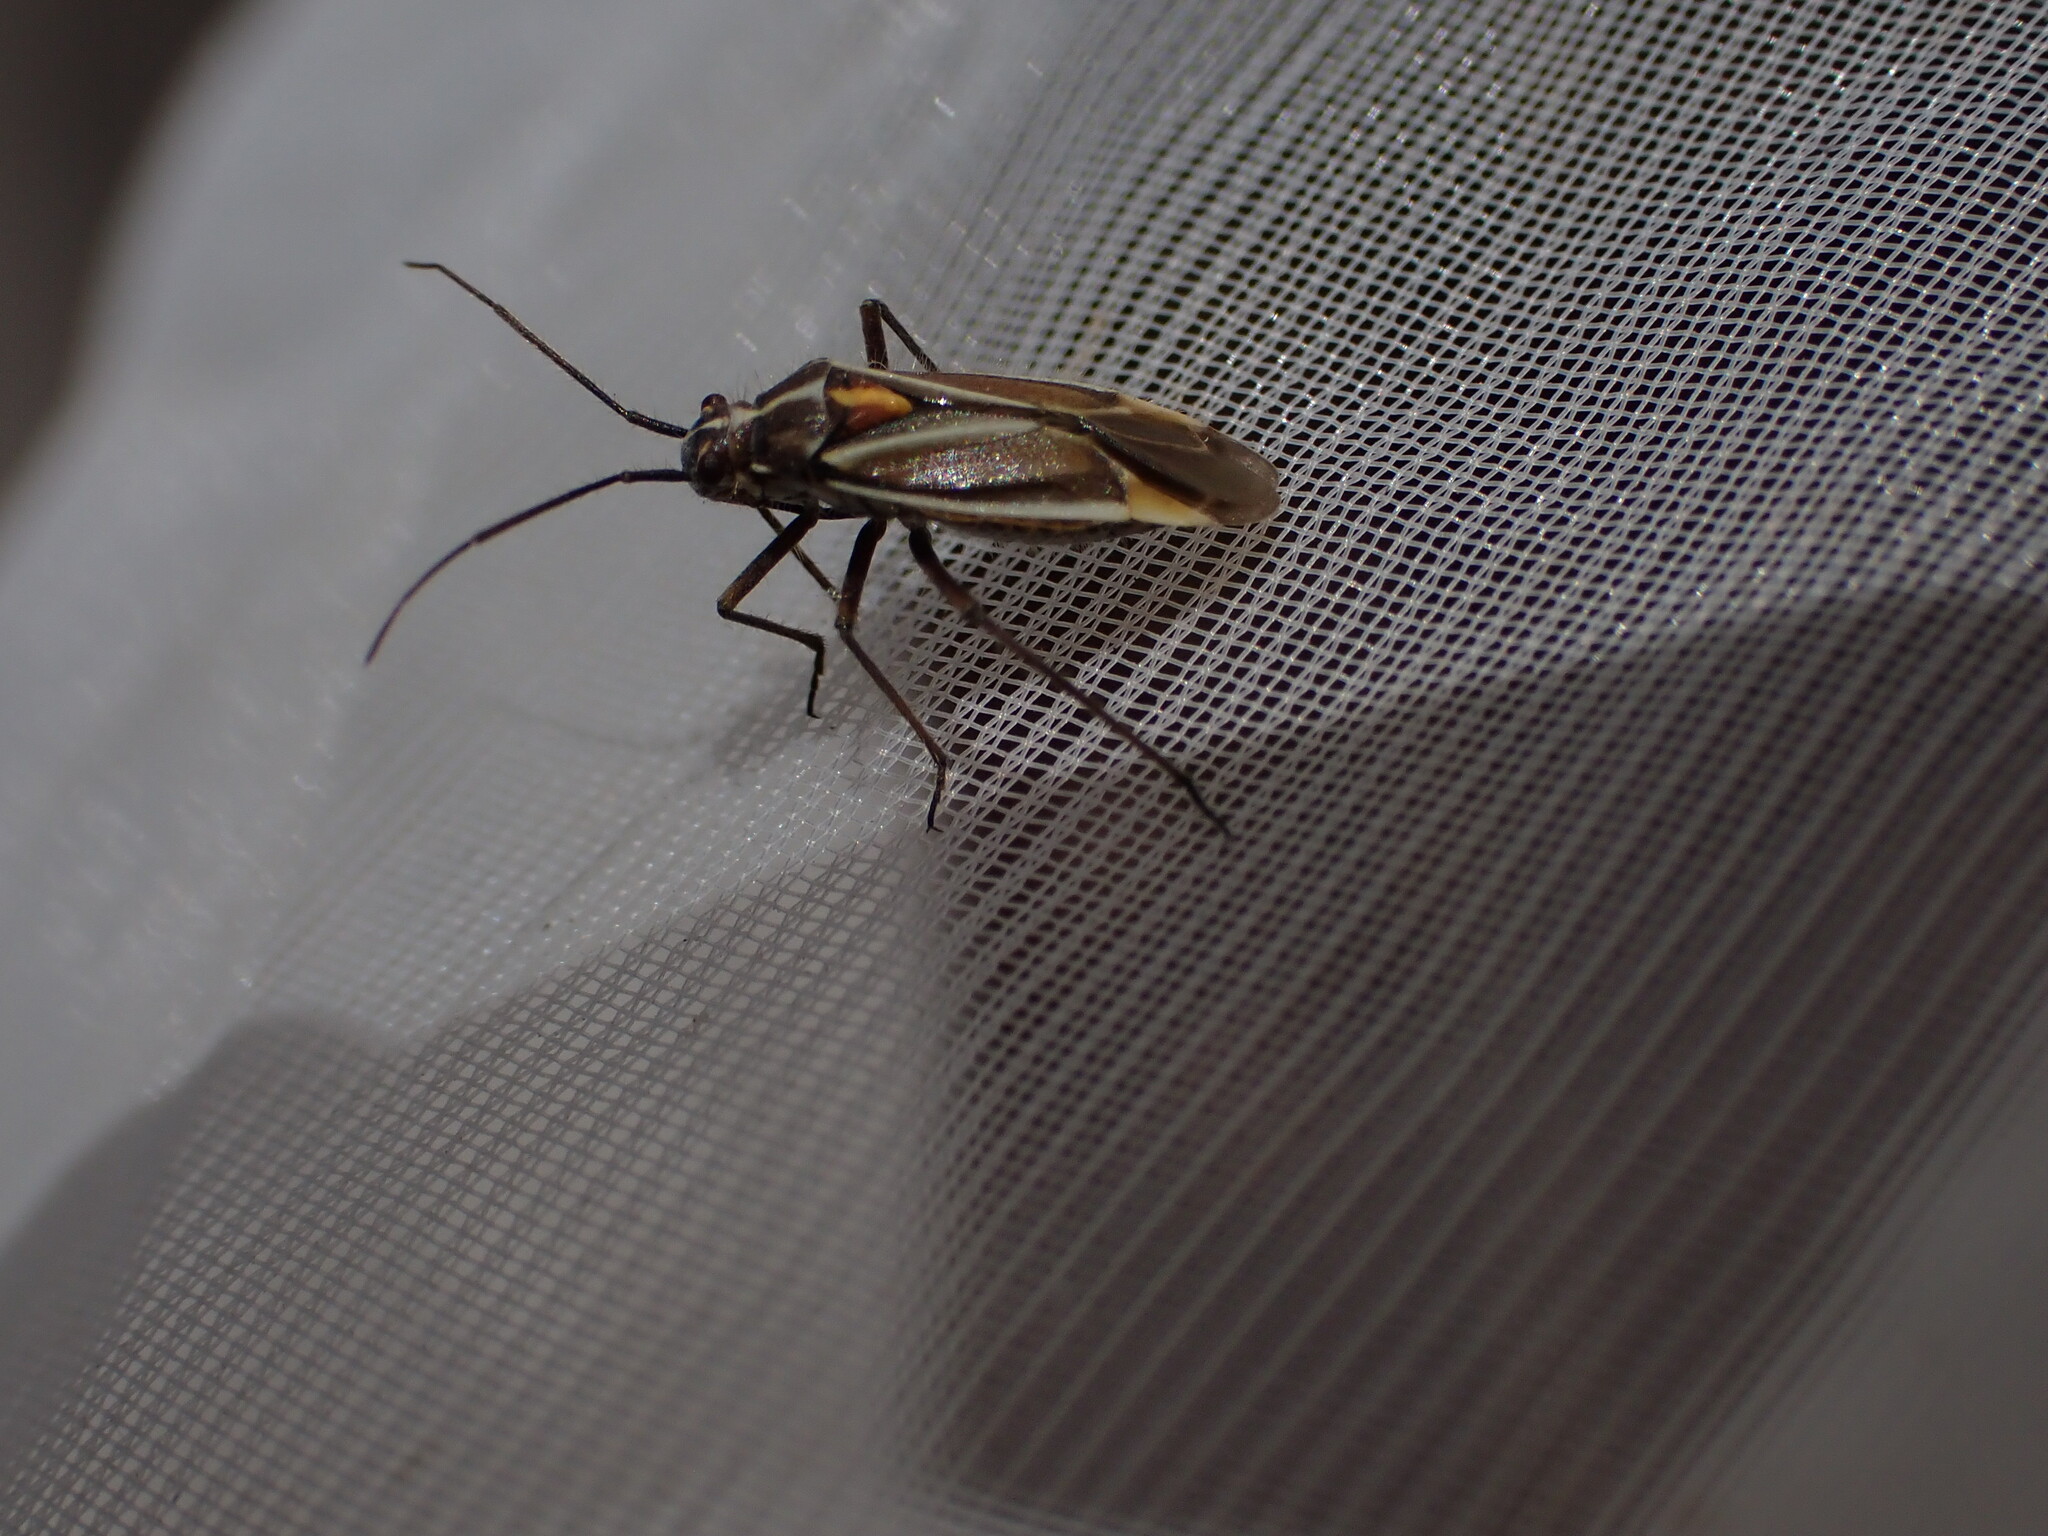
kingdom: Animalia
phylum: Arthropoda
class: Insecta
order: Hemiptera
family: Miridae
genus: Horistus
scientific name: Horistus orientalis
